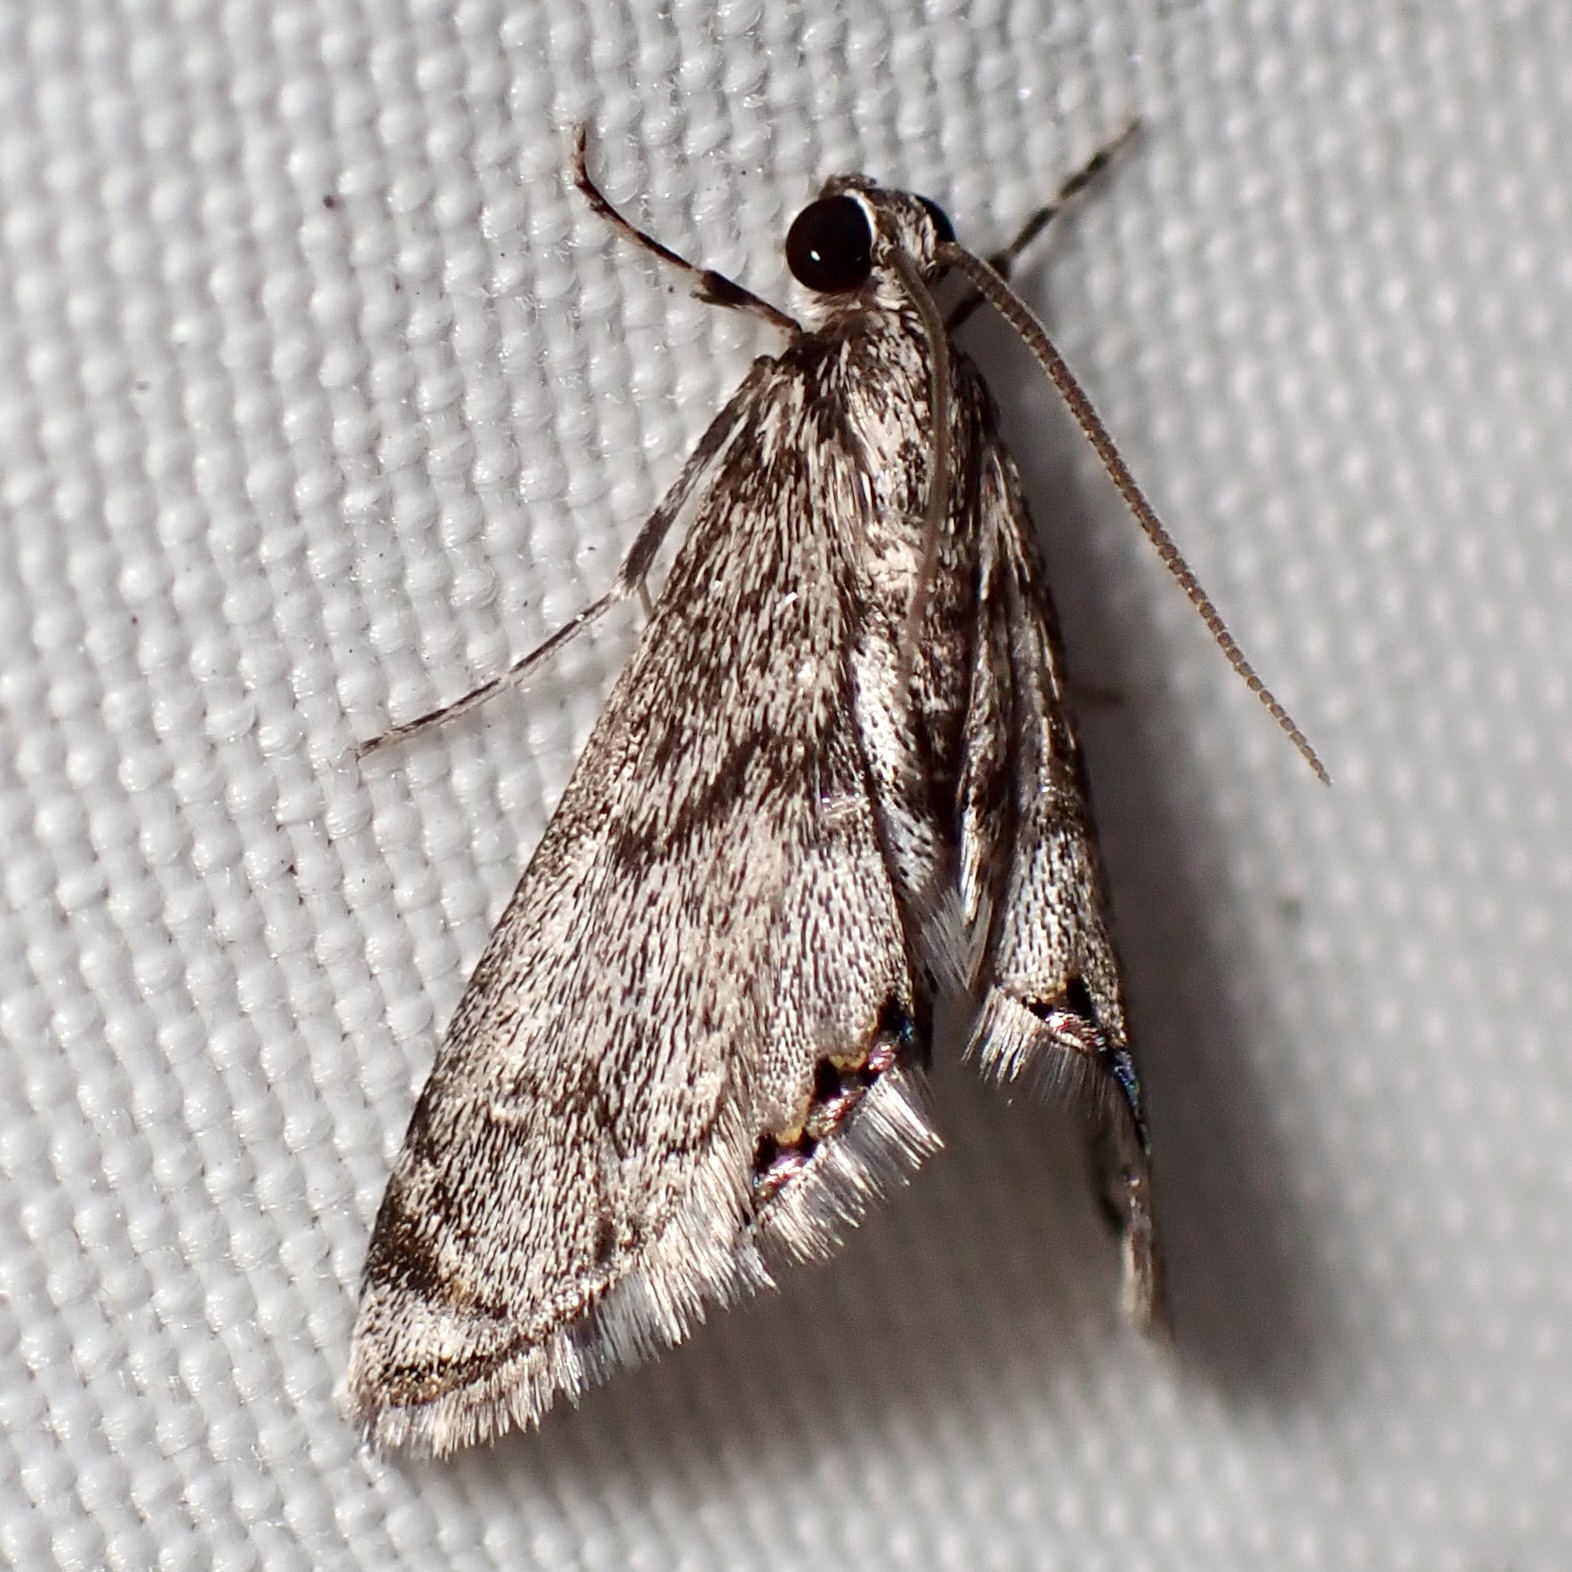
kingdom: Animalia
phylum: Arthropoda
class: Insecta
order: Lepidoptera
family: Crambidae
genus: Petrophila
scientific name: Petrophila schaefferalis
